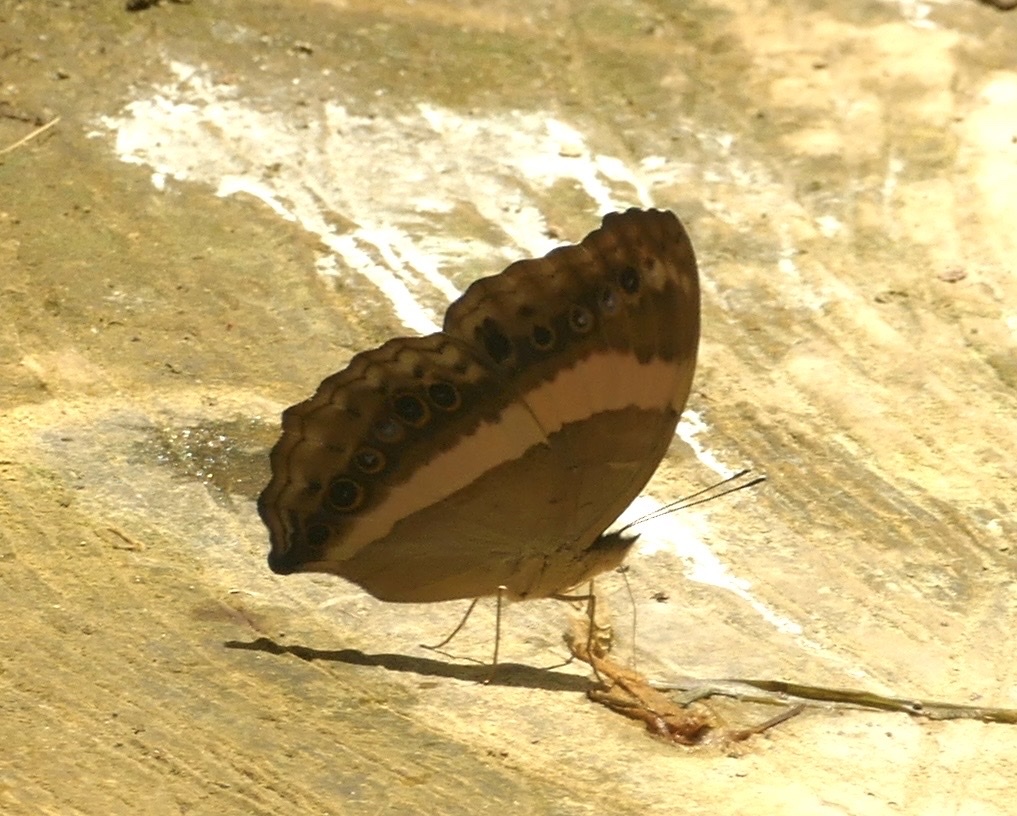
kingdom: Animalia
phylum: Arthropoda
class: Insecta
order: Lepidoptera
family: Nymphalidae
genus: Yoma
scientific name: Yoma algina
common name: New guinea lurcher
